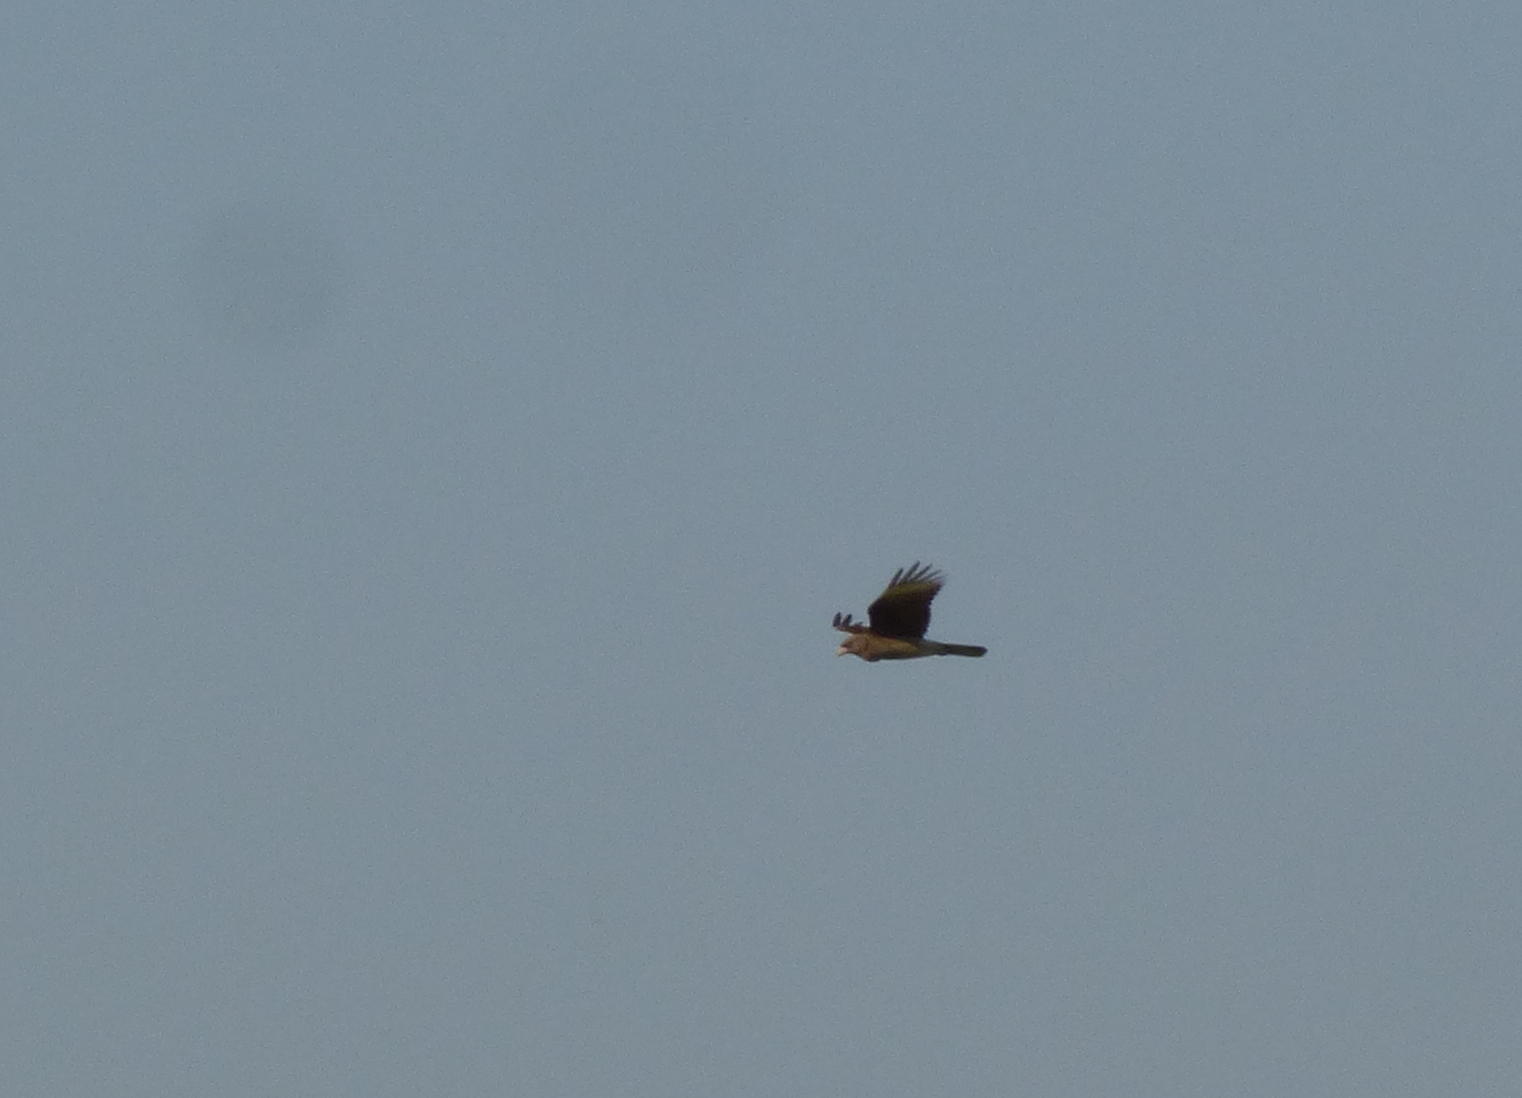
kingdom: Animalia
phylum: Chordata
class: Aves
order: Falconiformes
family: Falconidae
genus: Daptrius
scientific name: Daptrius
